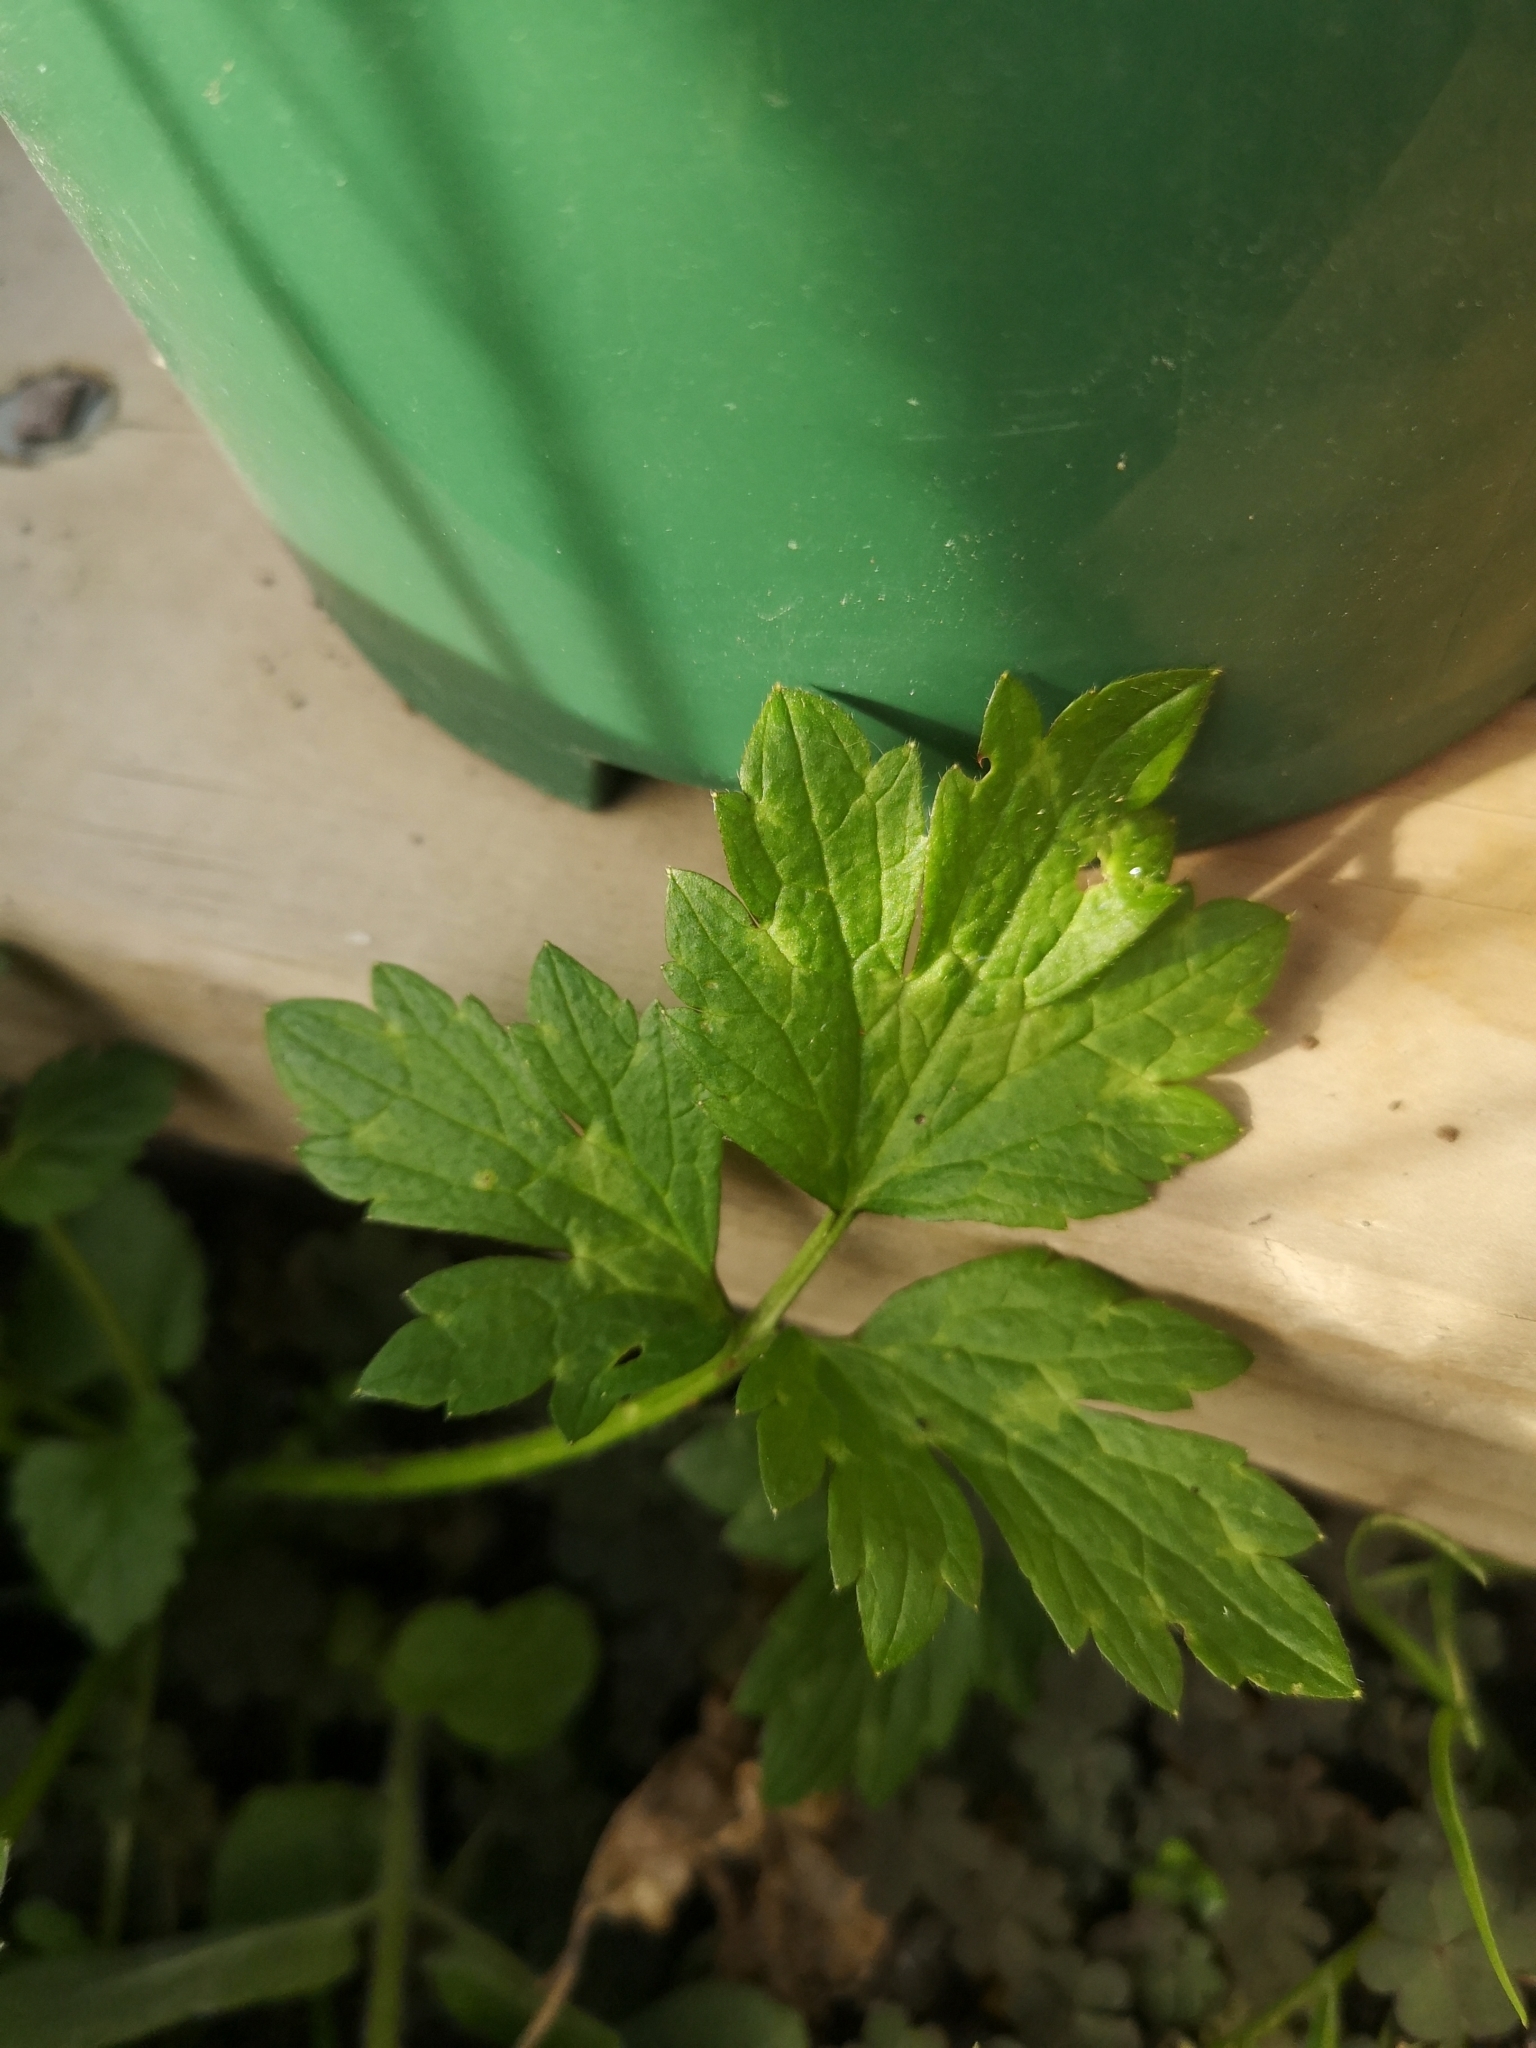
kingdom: Plantae
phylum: Tracheophyta
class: Magnoliopsida
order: Ranunculales
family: Ranunculaceae
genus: Ranunculus
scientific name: Ranunculus repens
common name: Creeping buttercup
